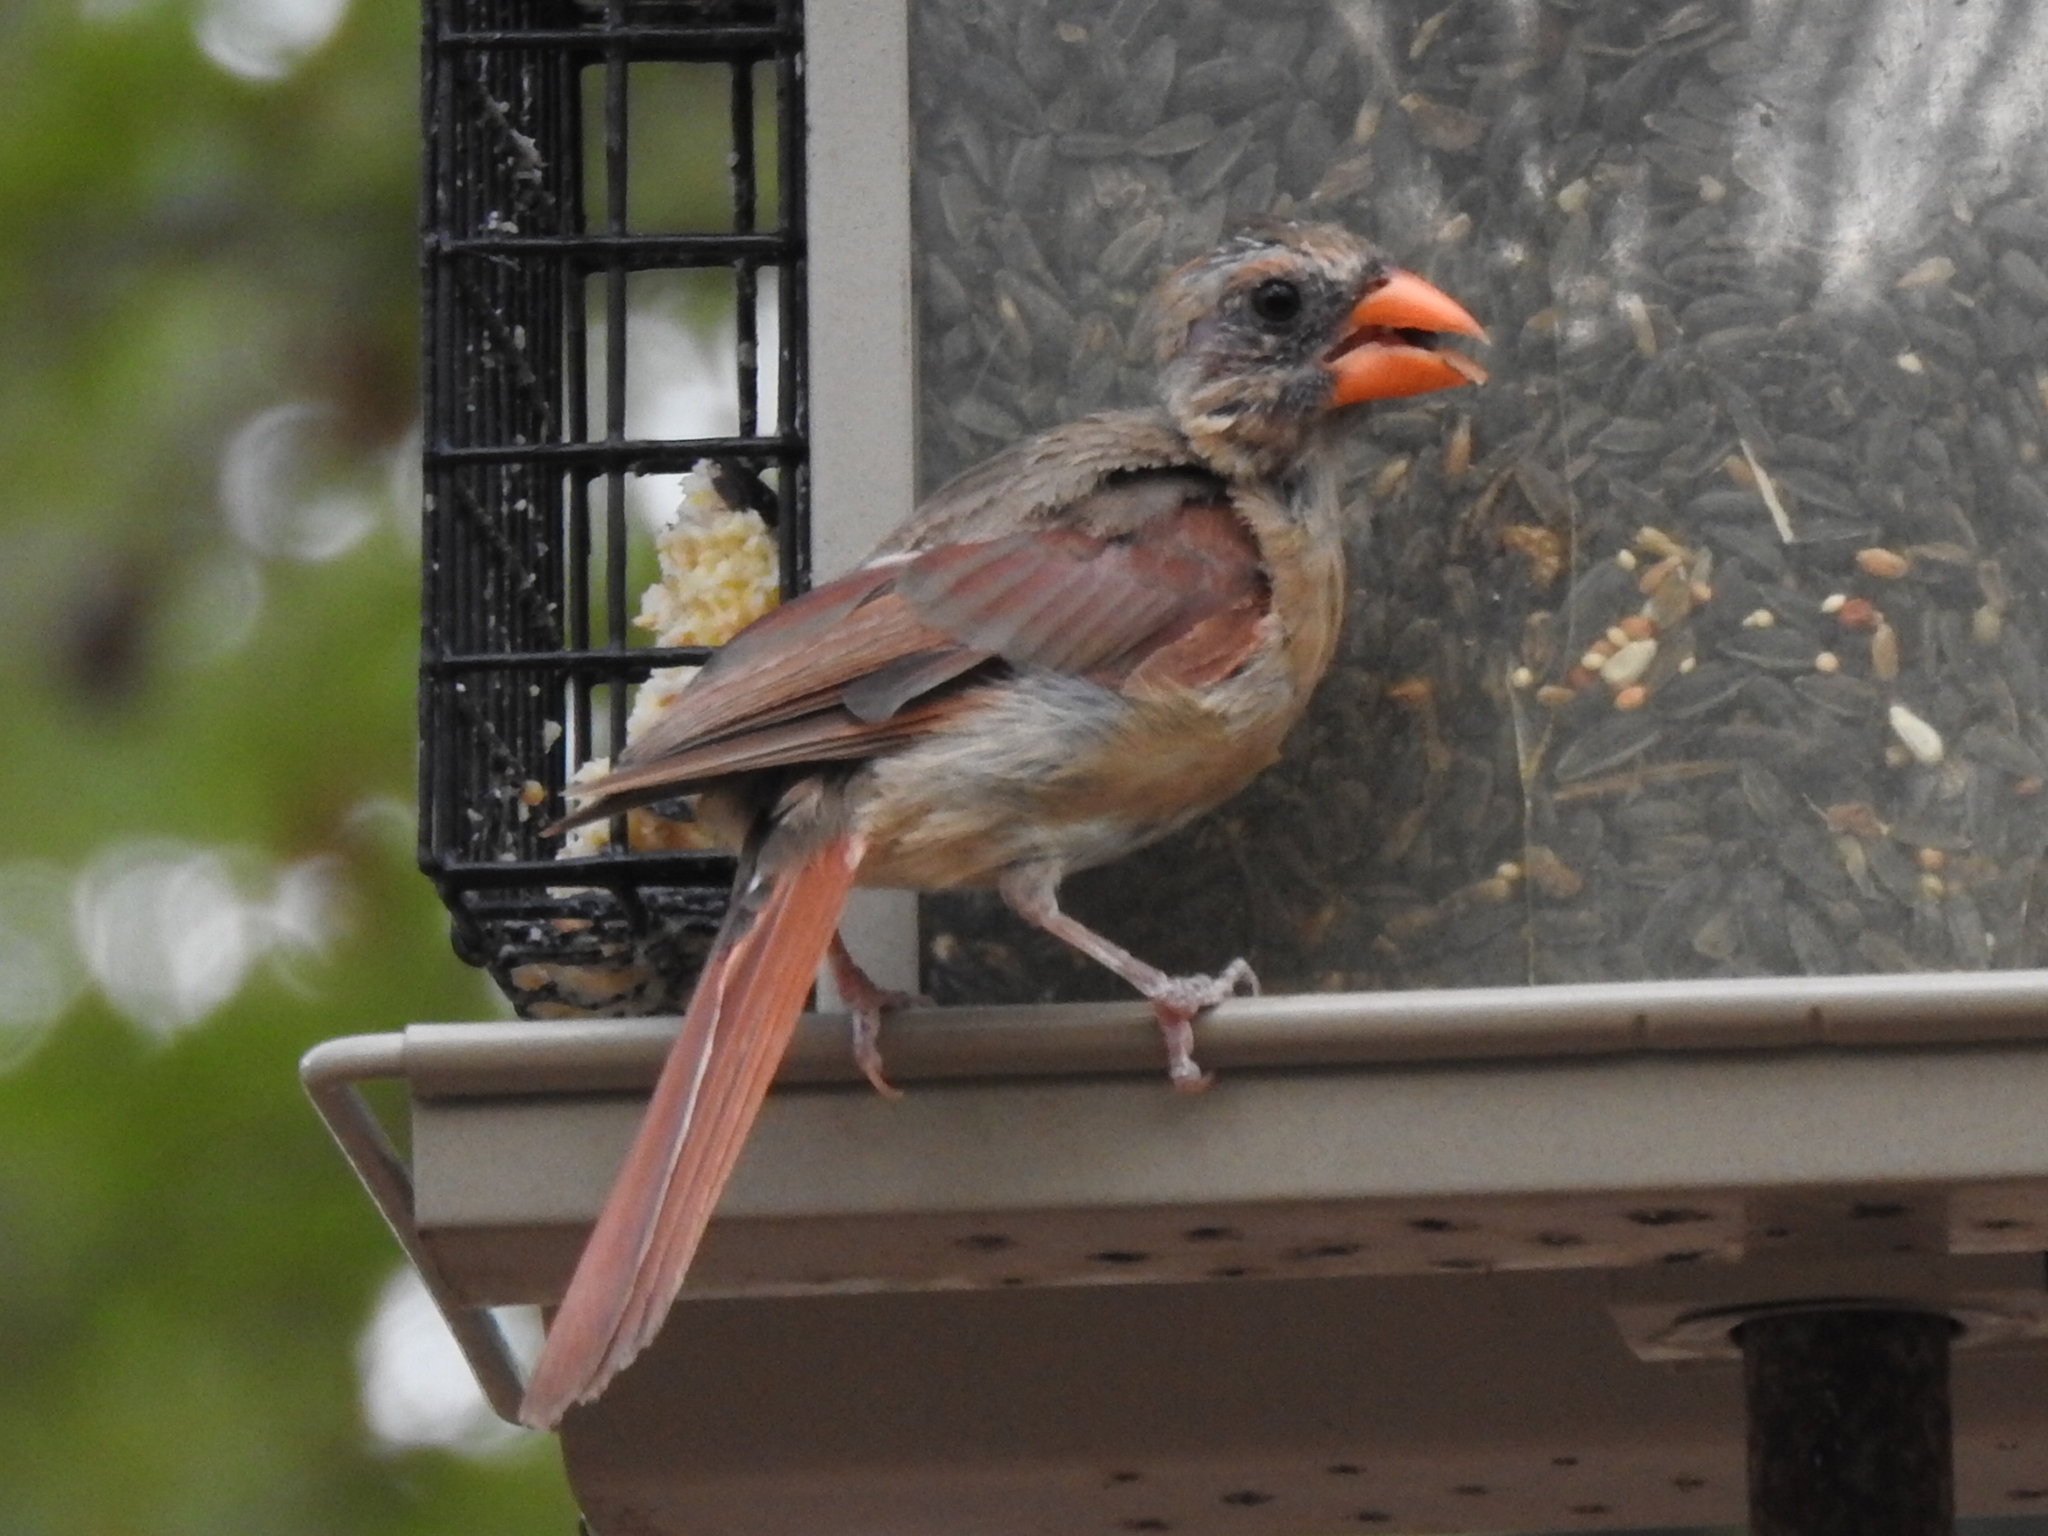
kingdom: Animalia
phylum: Chordata
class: Aves
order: Passeriformes
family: Cardinalidae
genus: Cardinalis
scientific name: Cardinalis cardinalis
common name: Northern cardinal
